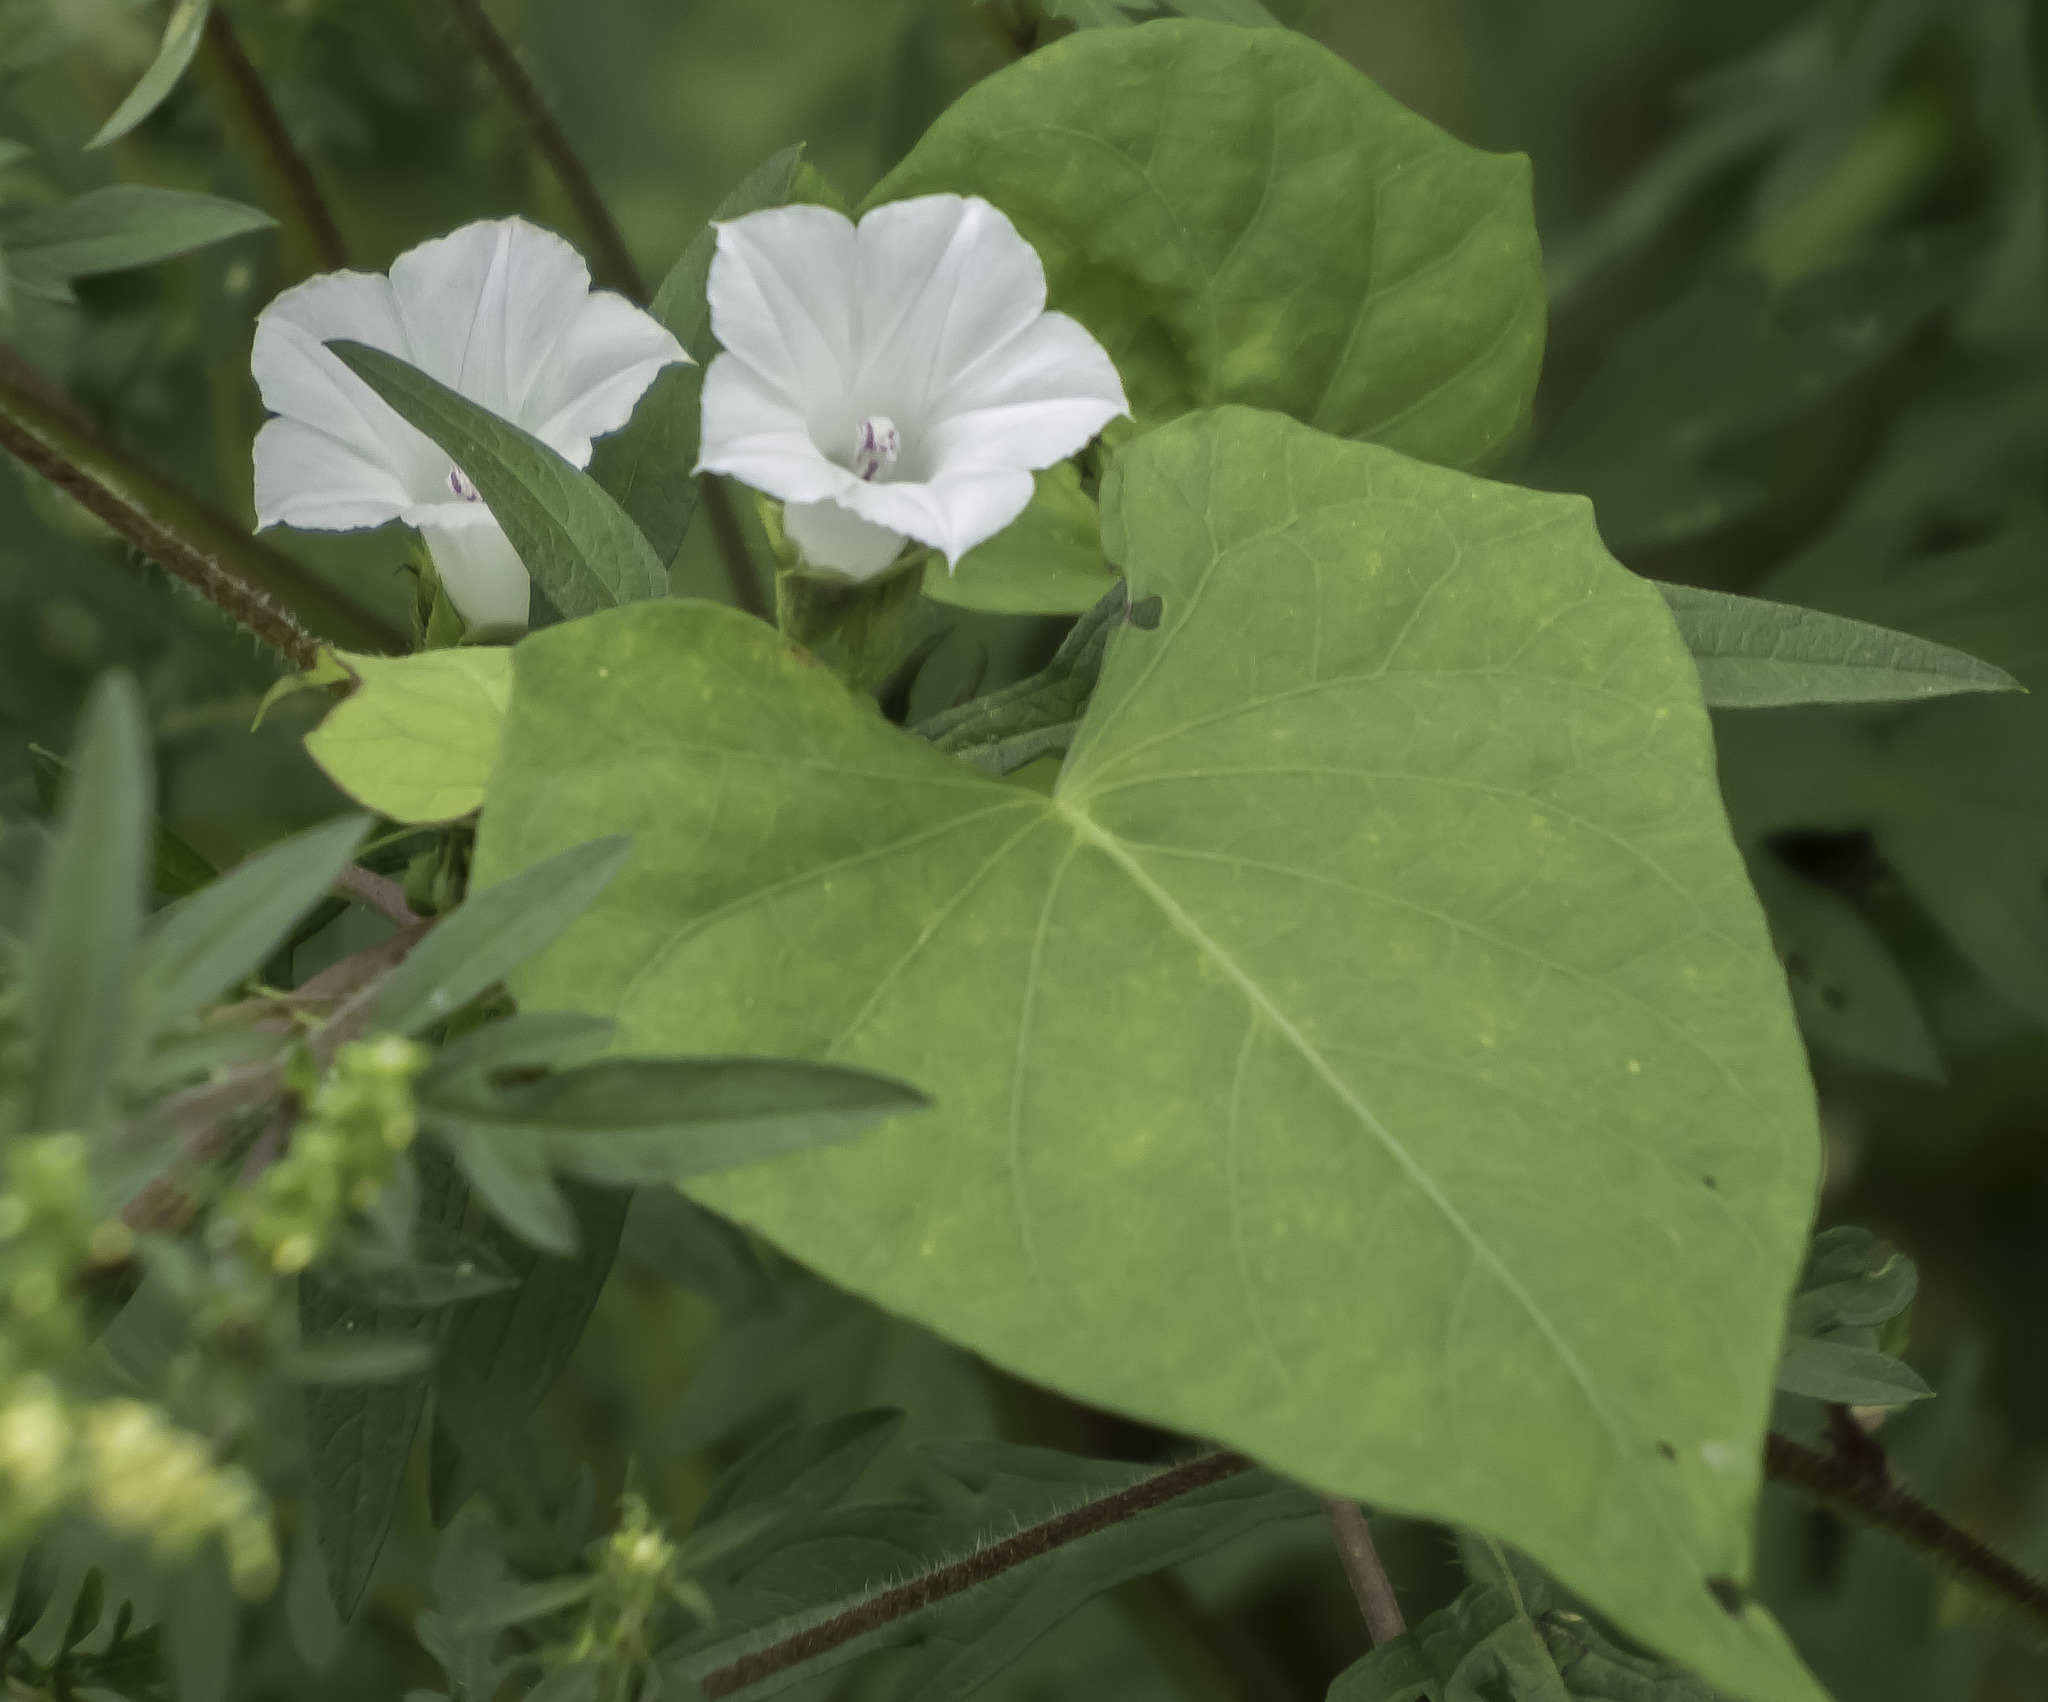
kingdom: Plantae
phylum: Tracheophyta
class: Magnoliopsida
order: Solanales
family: Convolvulaceae
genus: Ipomoea
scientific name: Ipomoea lacunosa
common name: White morning-glory
